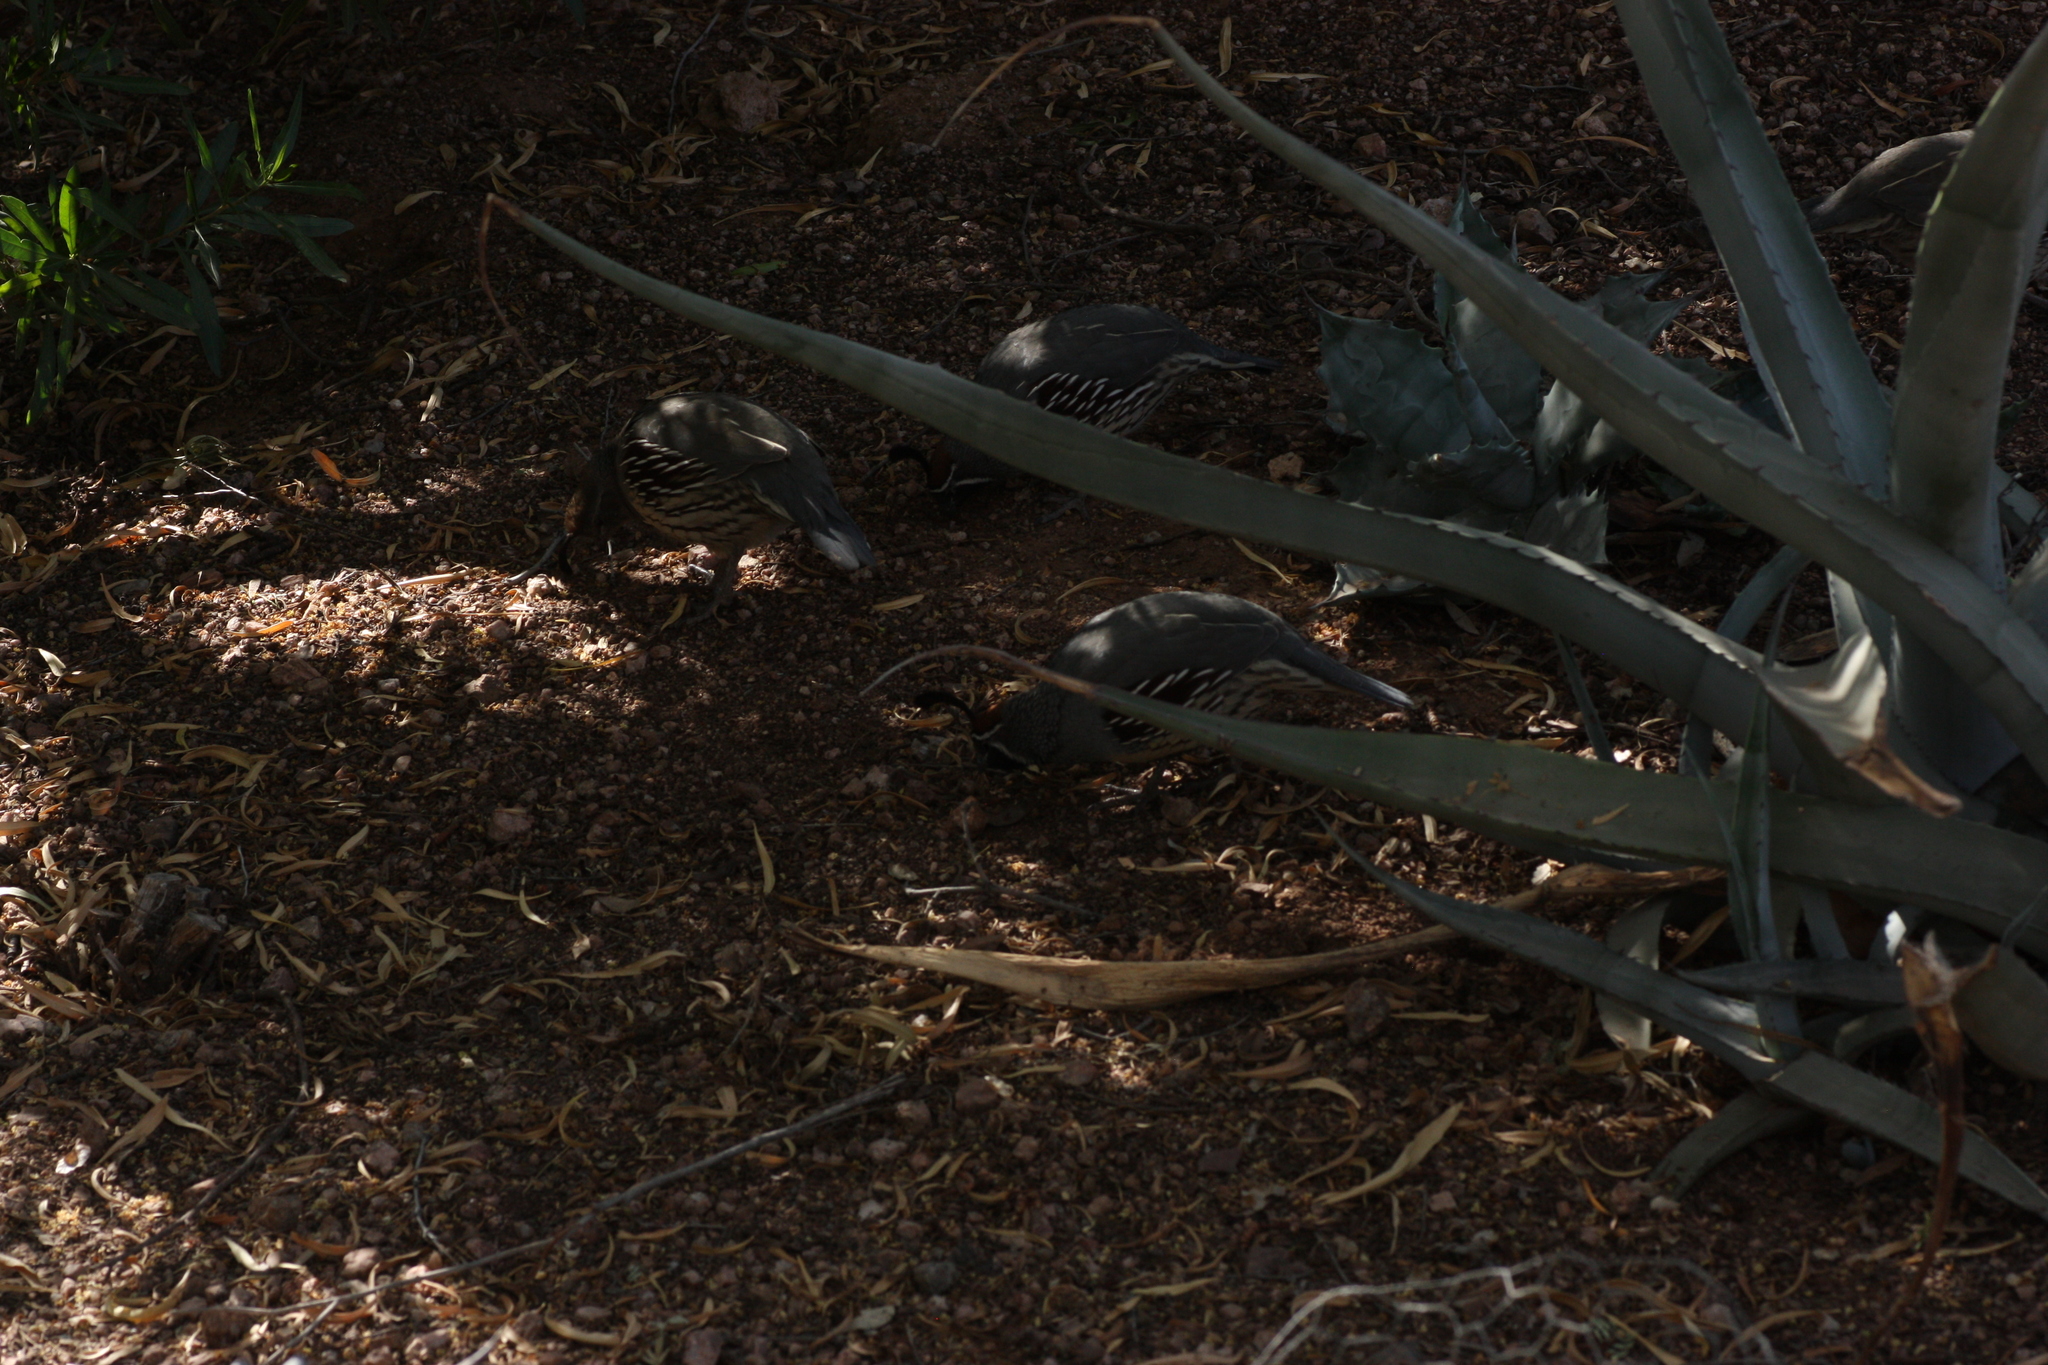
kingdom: Animalia
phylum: Chordata
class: Aves
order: Galliformes
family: Odontophoridae
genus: Callipepla
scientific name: Callipepla gambelii
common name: Gambel's quail
